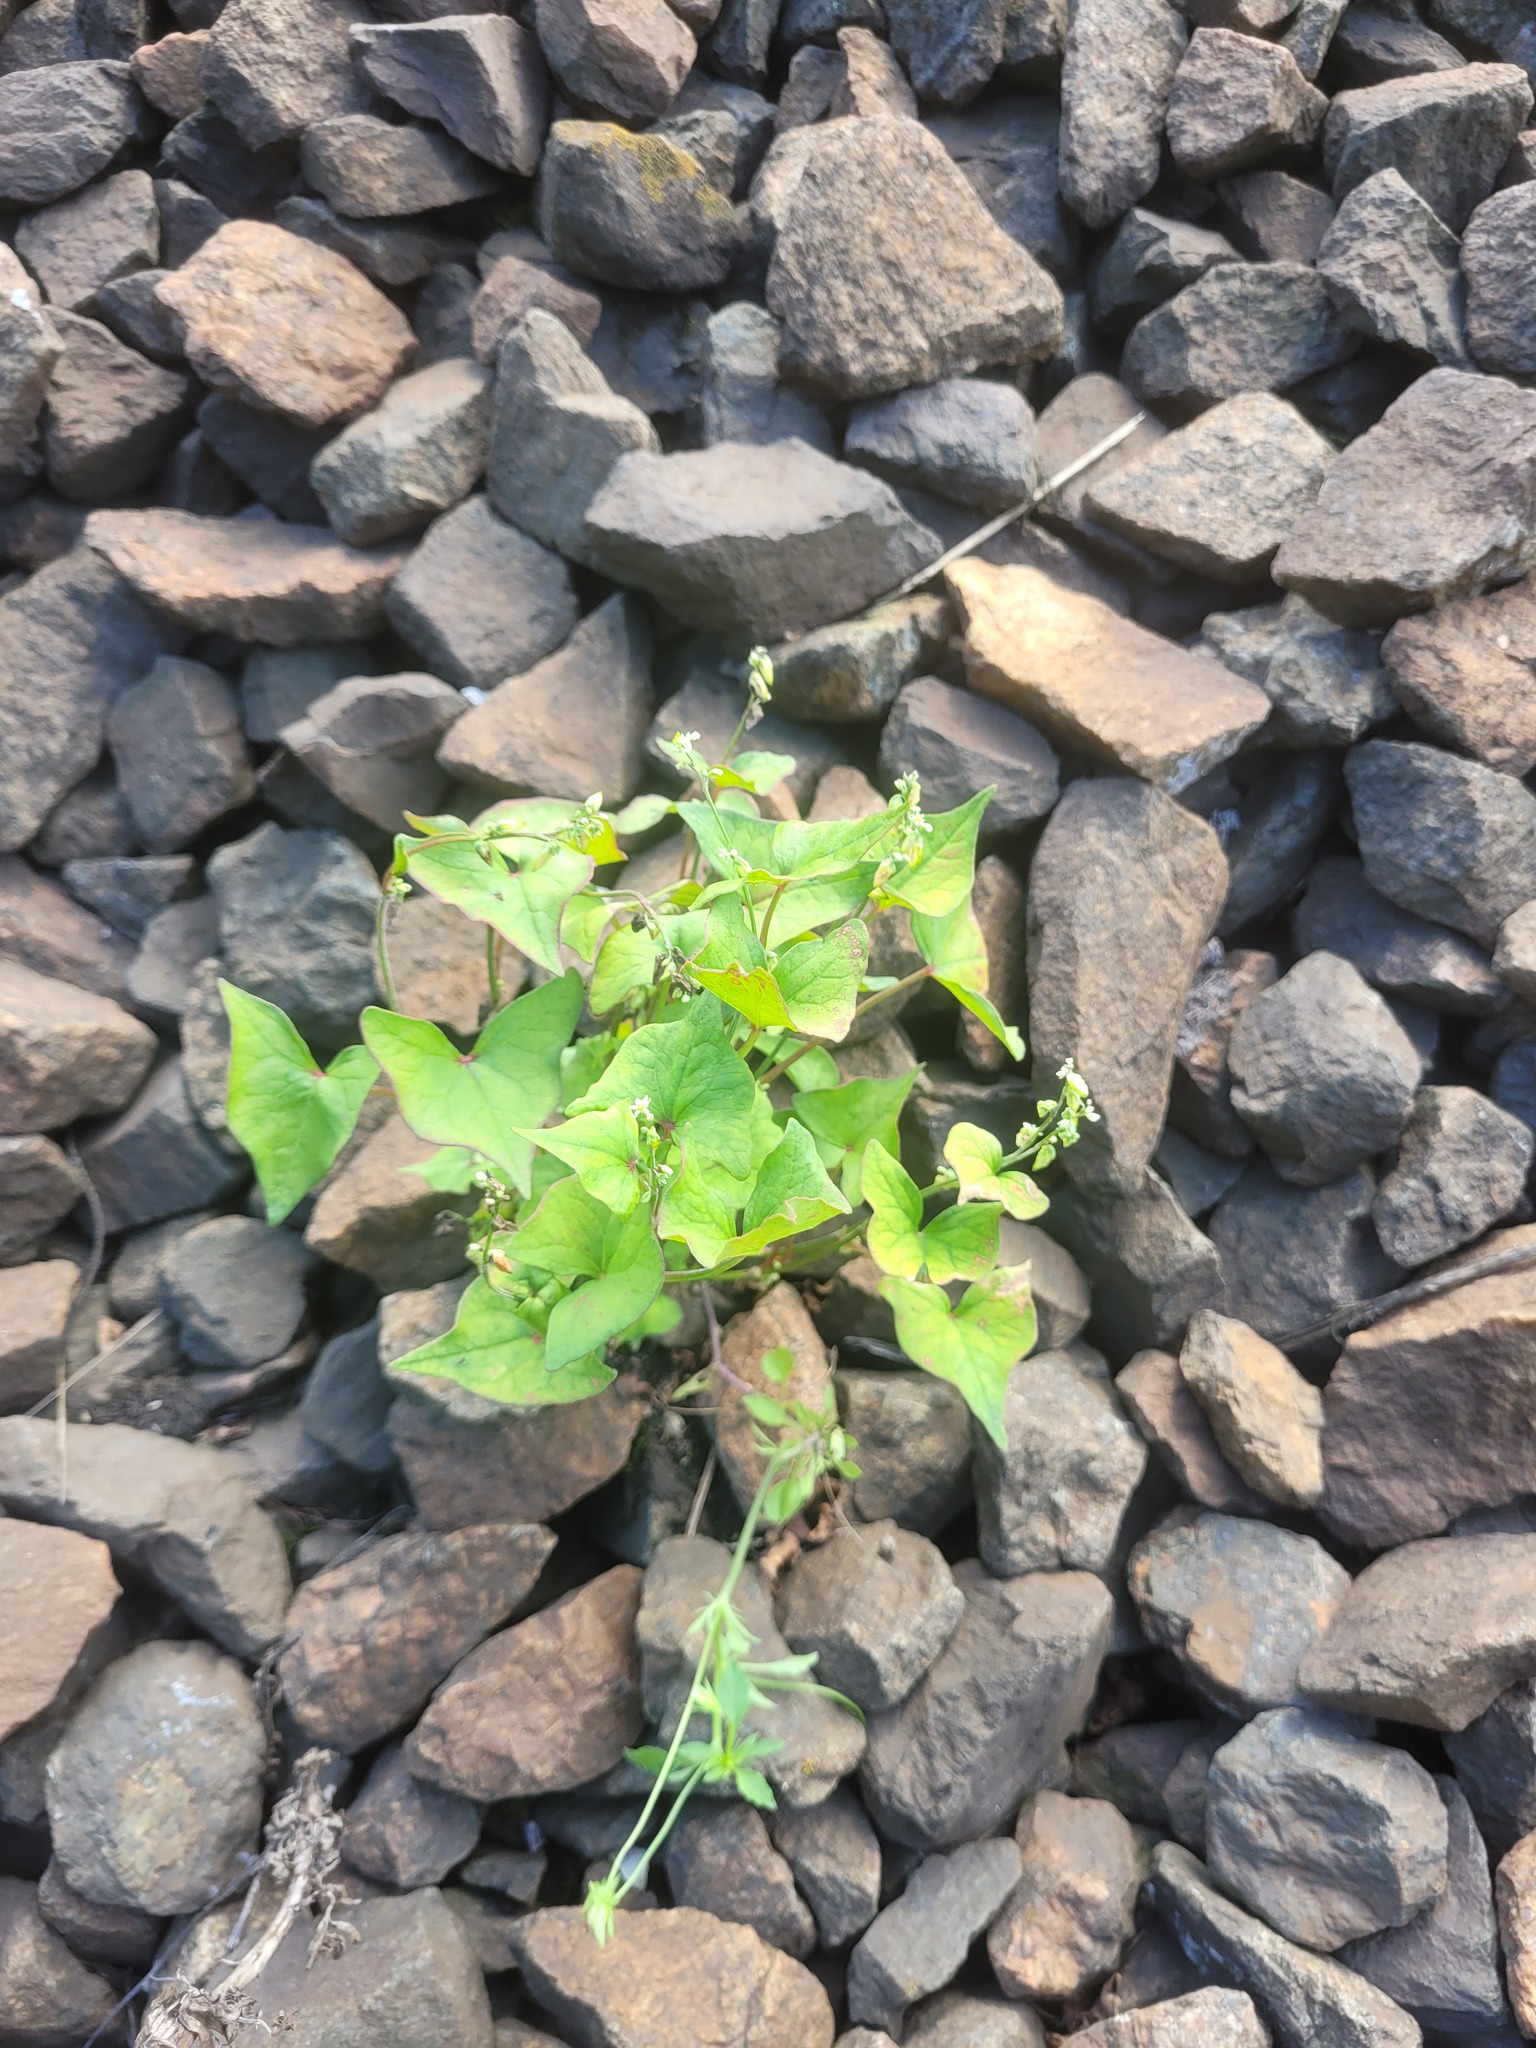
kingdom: Plantae
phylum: Tracheophyta
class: Magnoliopsida
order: Caryophyllales
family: Polygonaceae
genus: Fagopyrum
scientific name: Fagopyrum tataricum
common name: Green buckwheat
